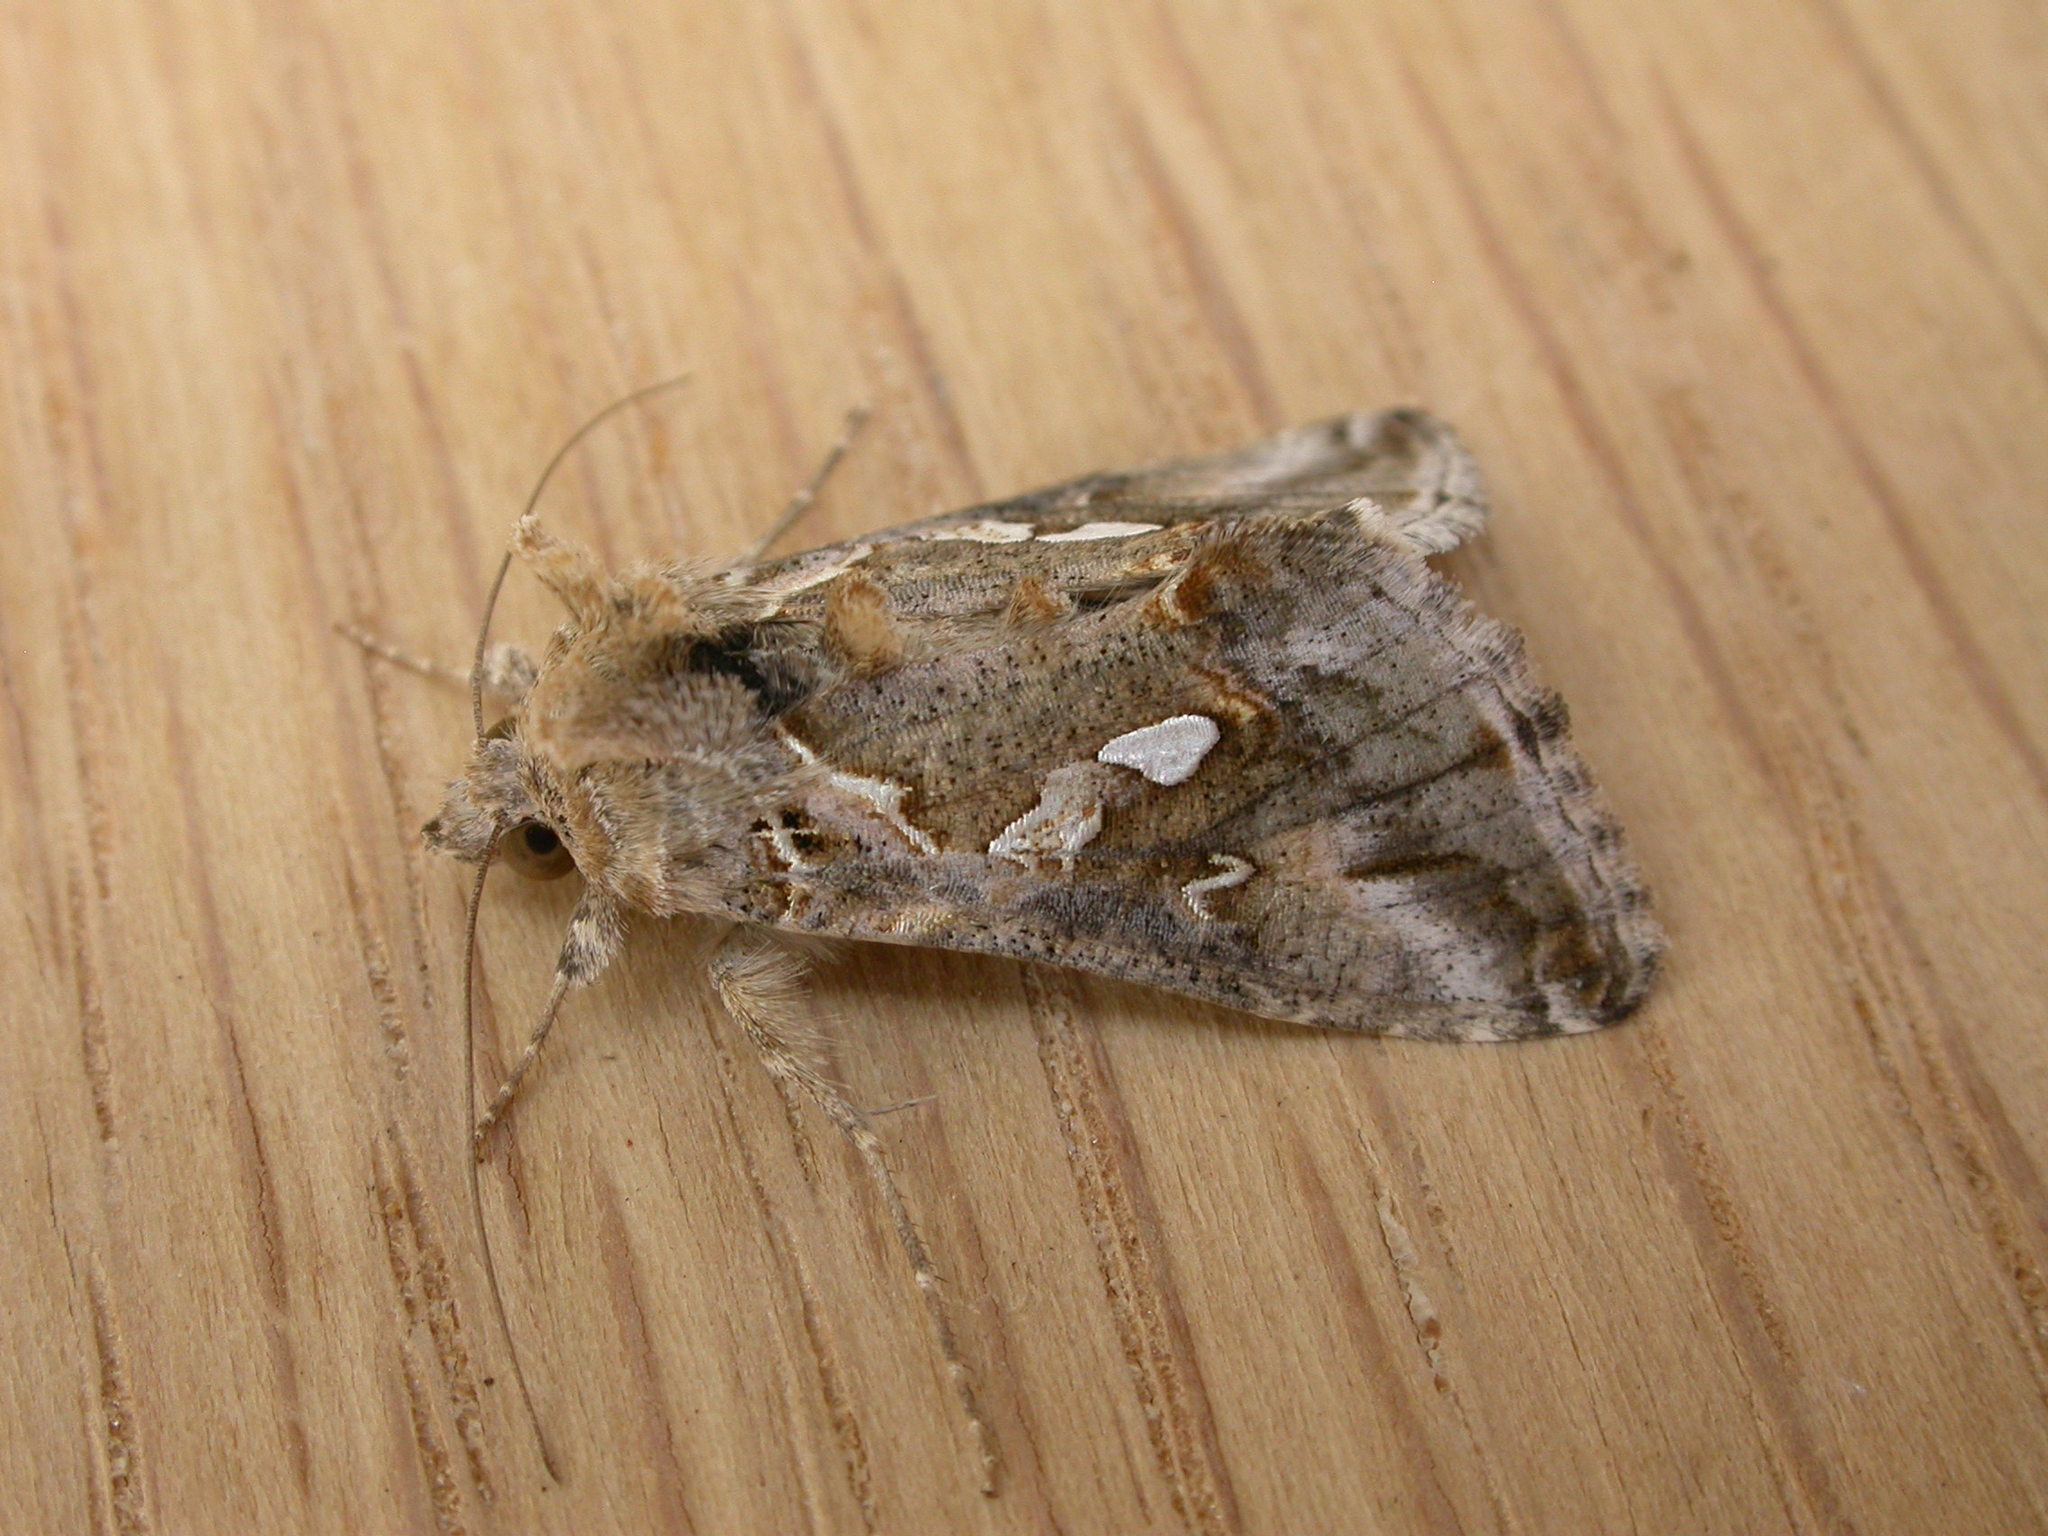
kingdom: Animalia
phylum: Arthropoda
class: Insecta
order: Lepidoptera
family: Noctuidae
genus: Chrysodeixis
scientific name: Chrysodeixis argentifera
